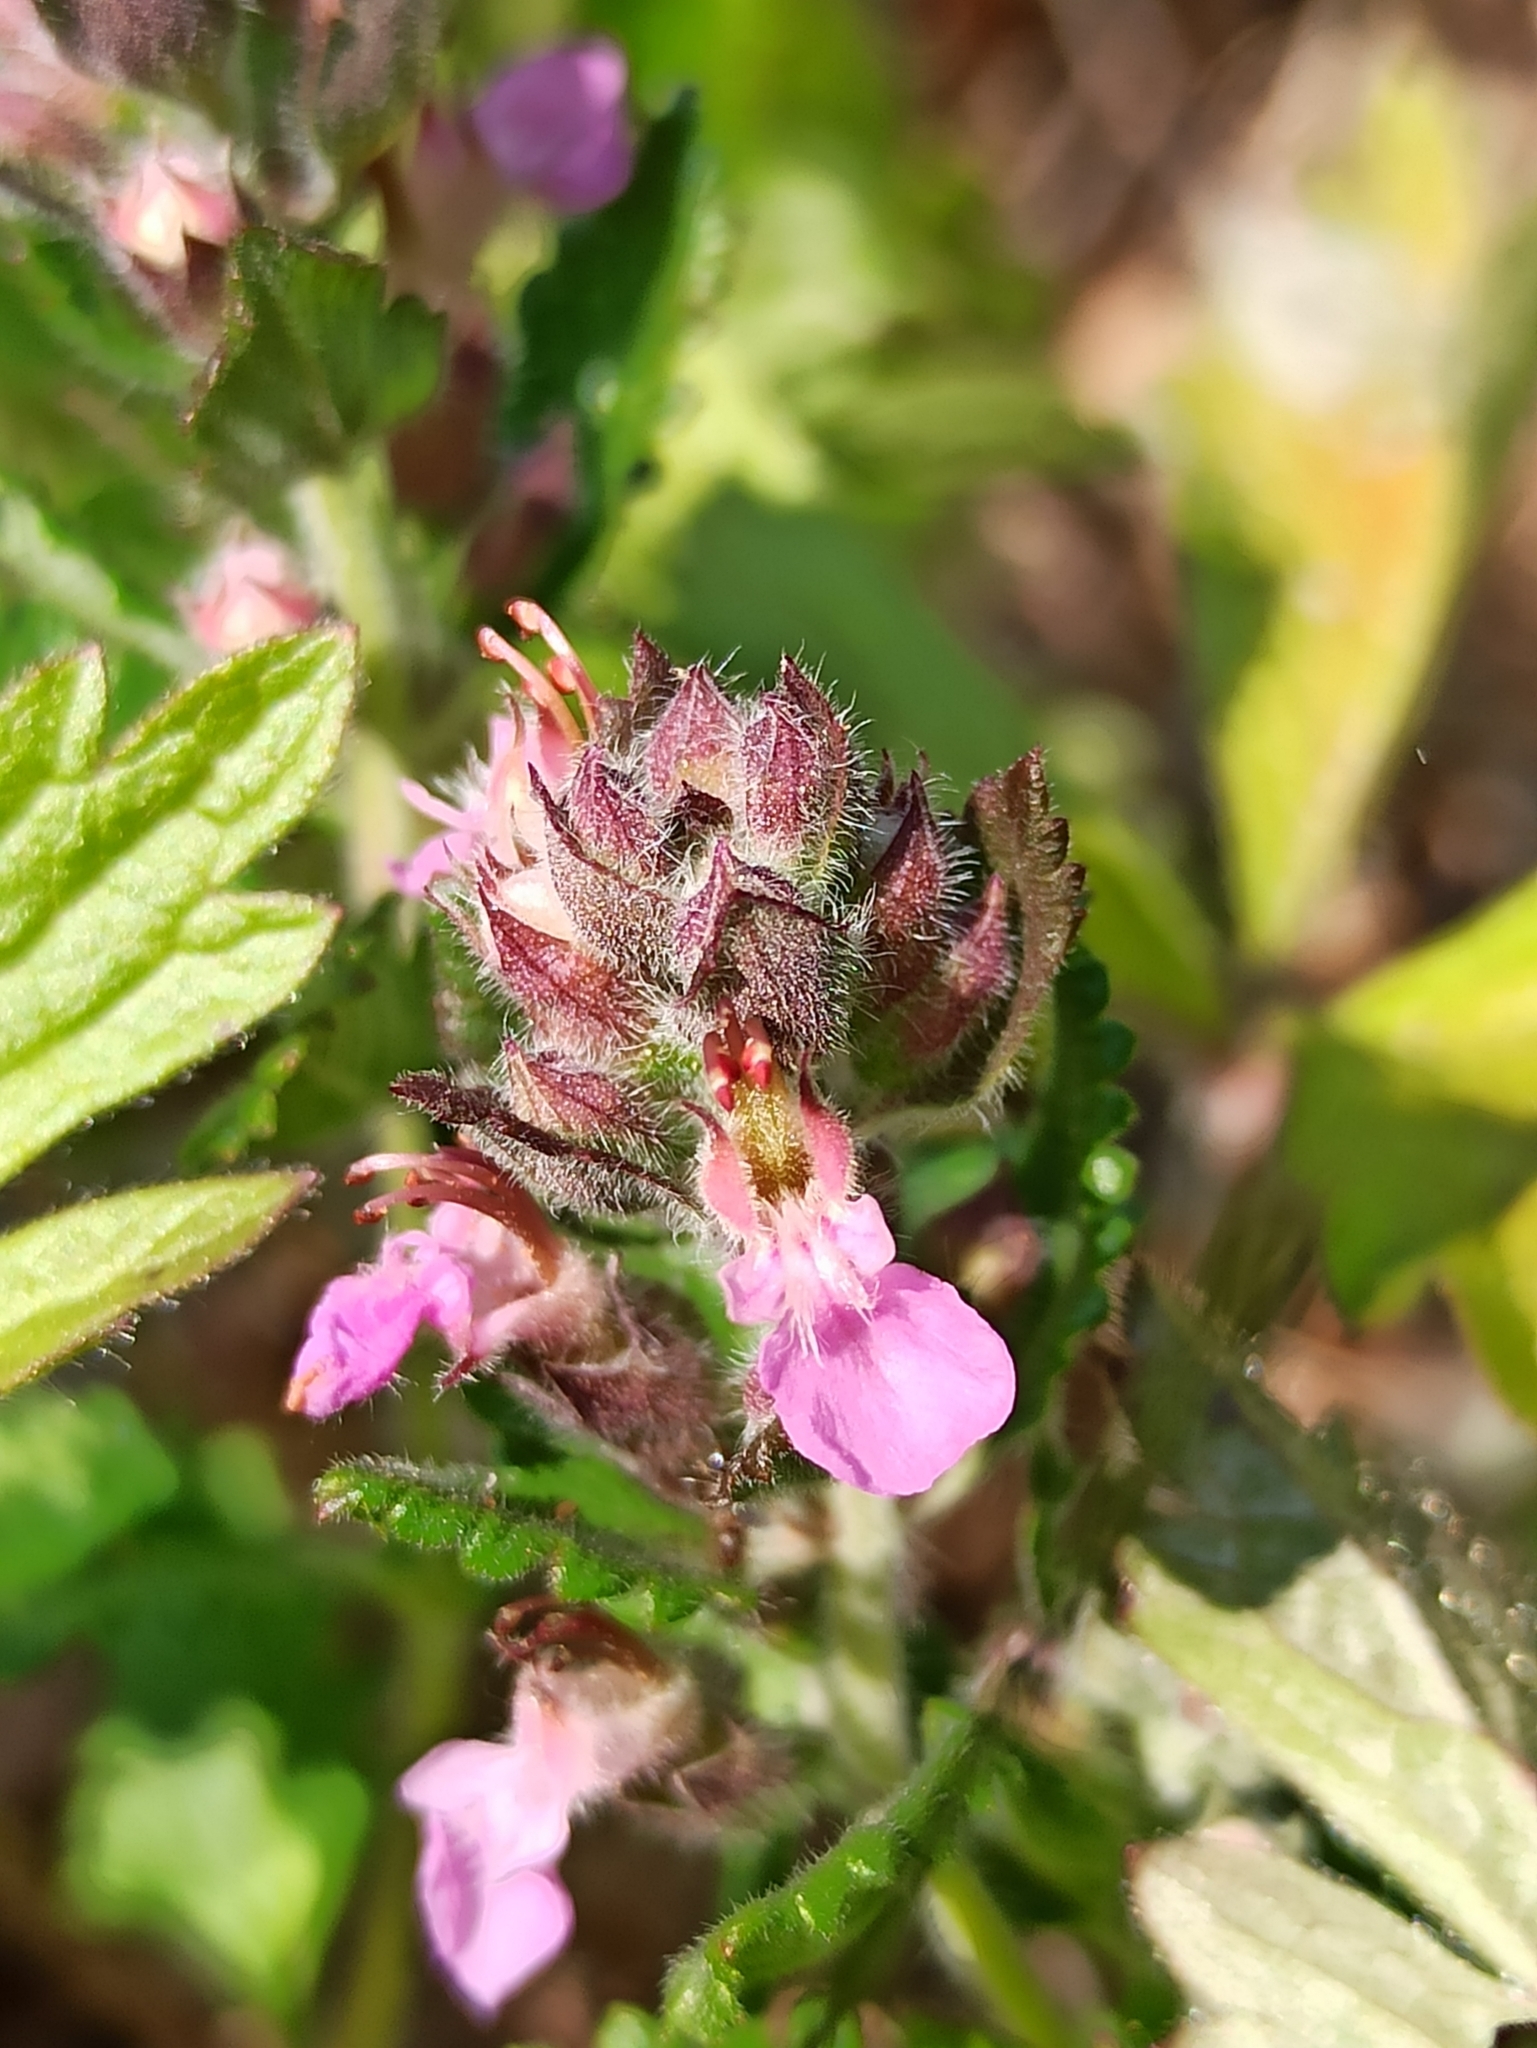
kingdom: Plantae
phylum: Tracheophyta
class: Magnoliopsida
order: Lamiales
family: Lamiaceae
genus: Teucrium
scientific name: Teucrium chamaedrys
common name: Wall germander
